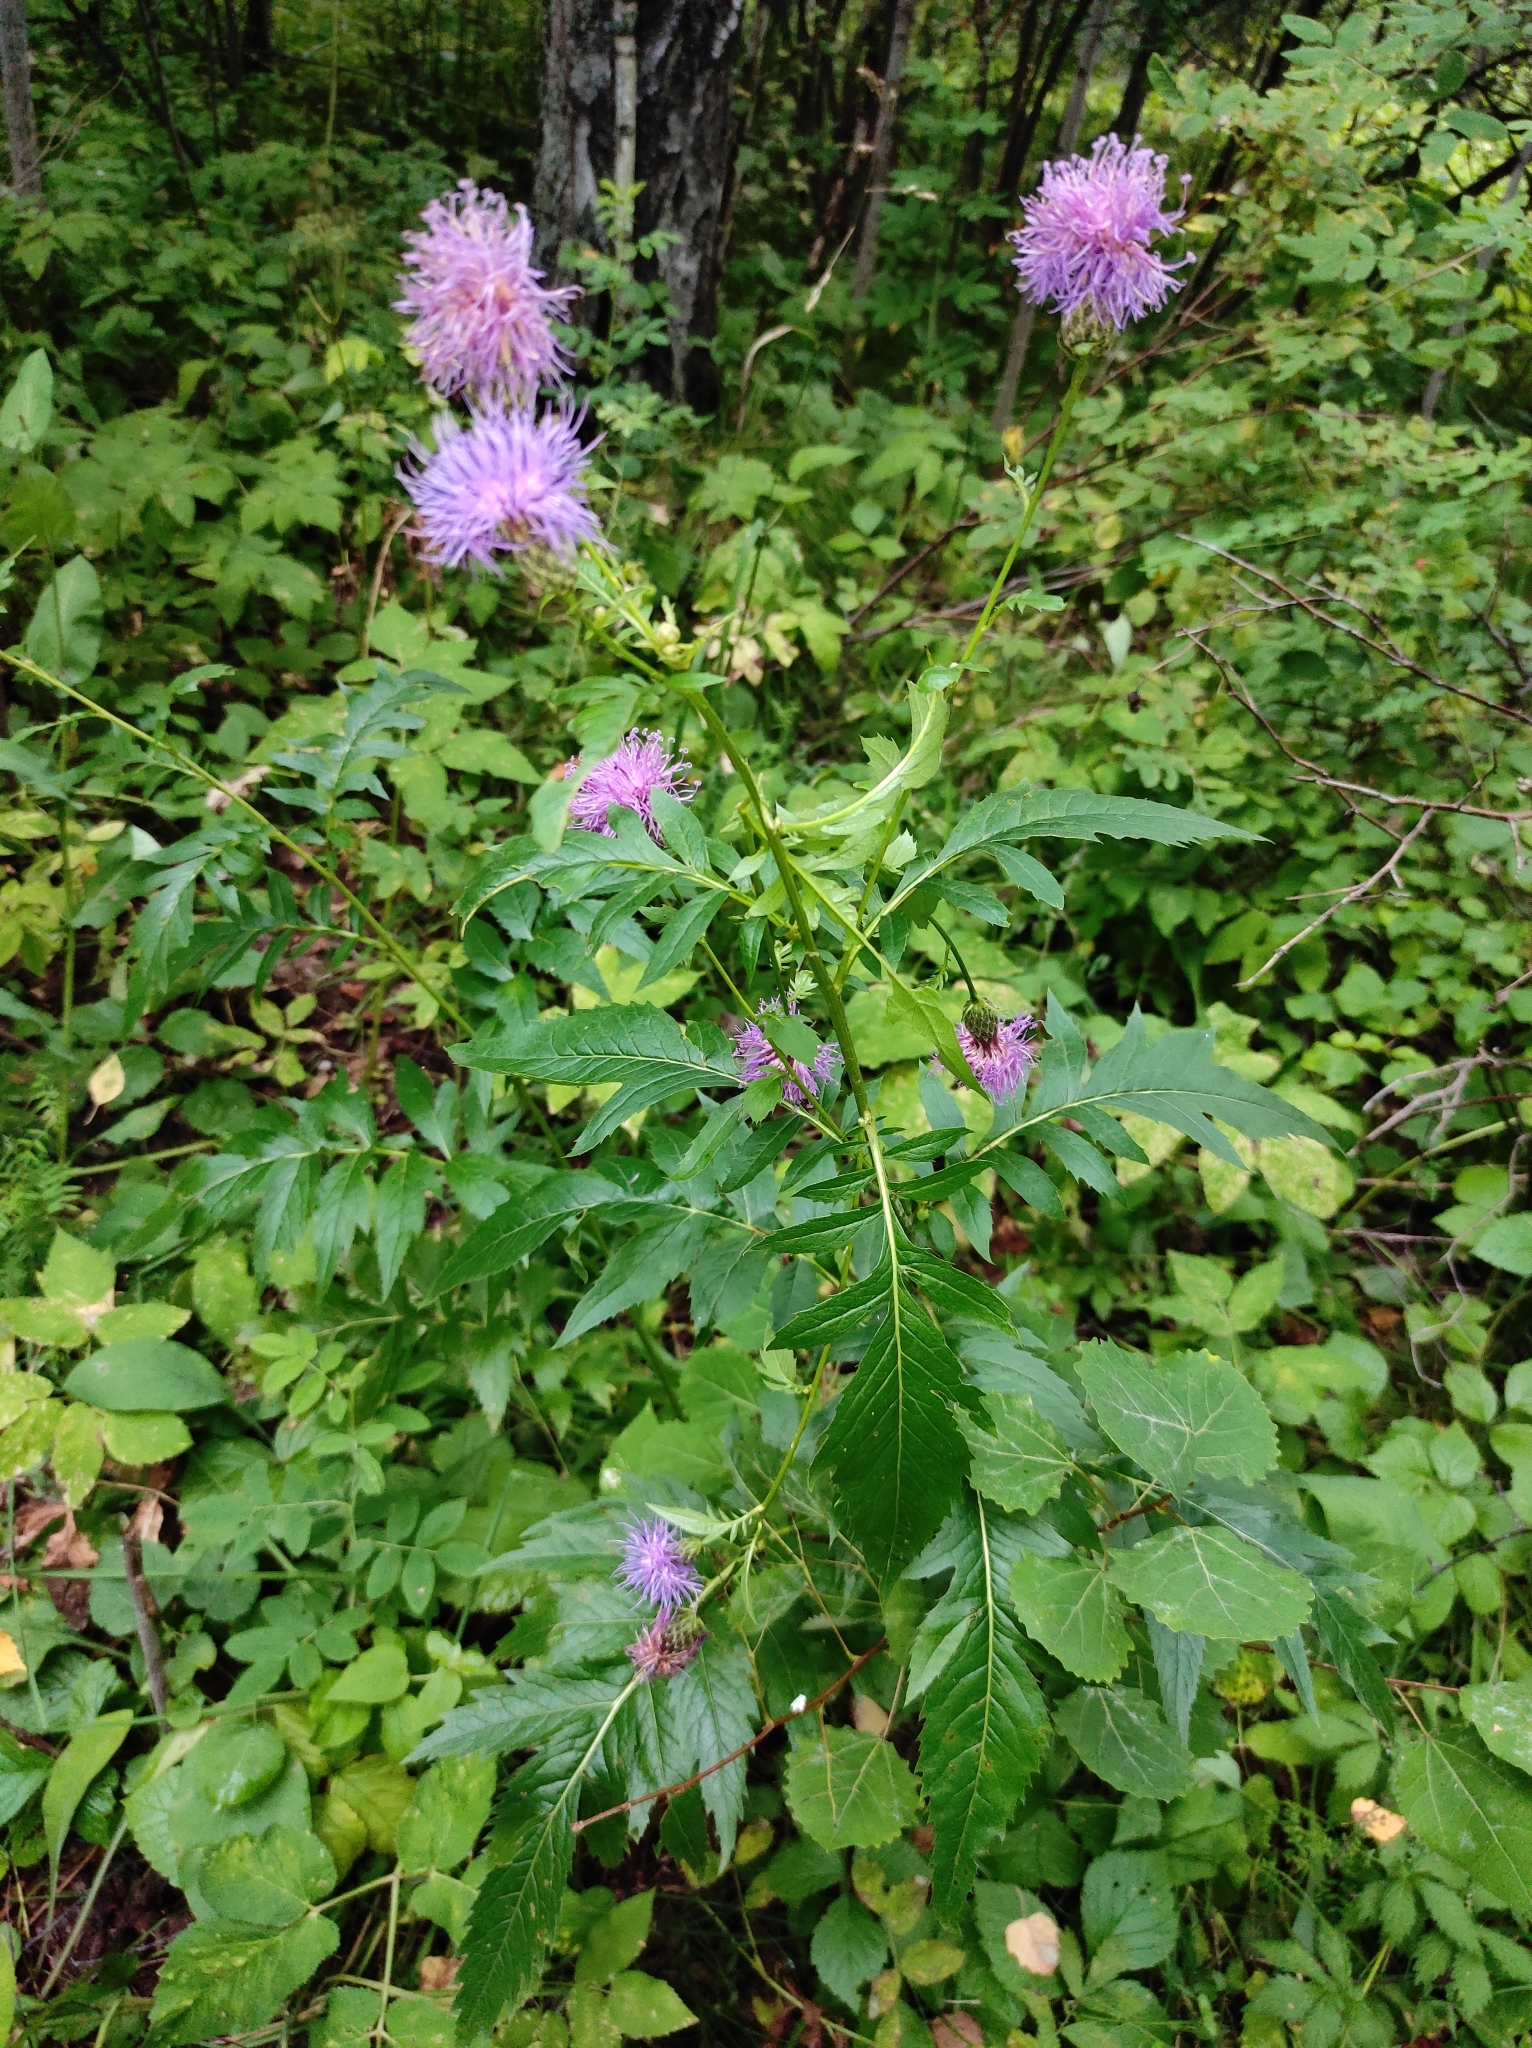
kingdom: Plantae
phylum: Tracheophyta
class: Magnoliopsida
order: Asterales
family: Asteraceae
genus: Serratula
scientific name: Serratula coronata
